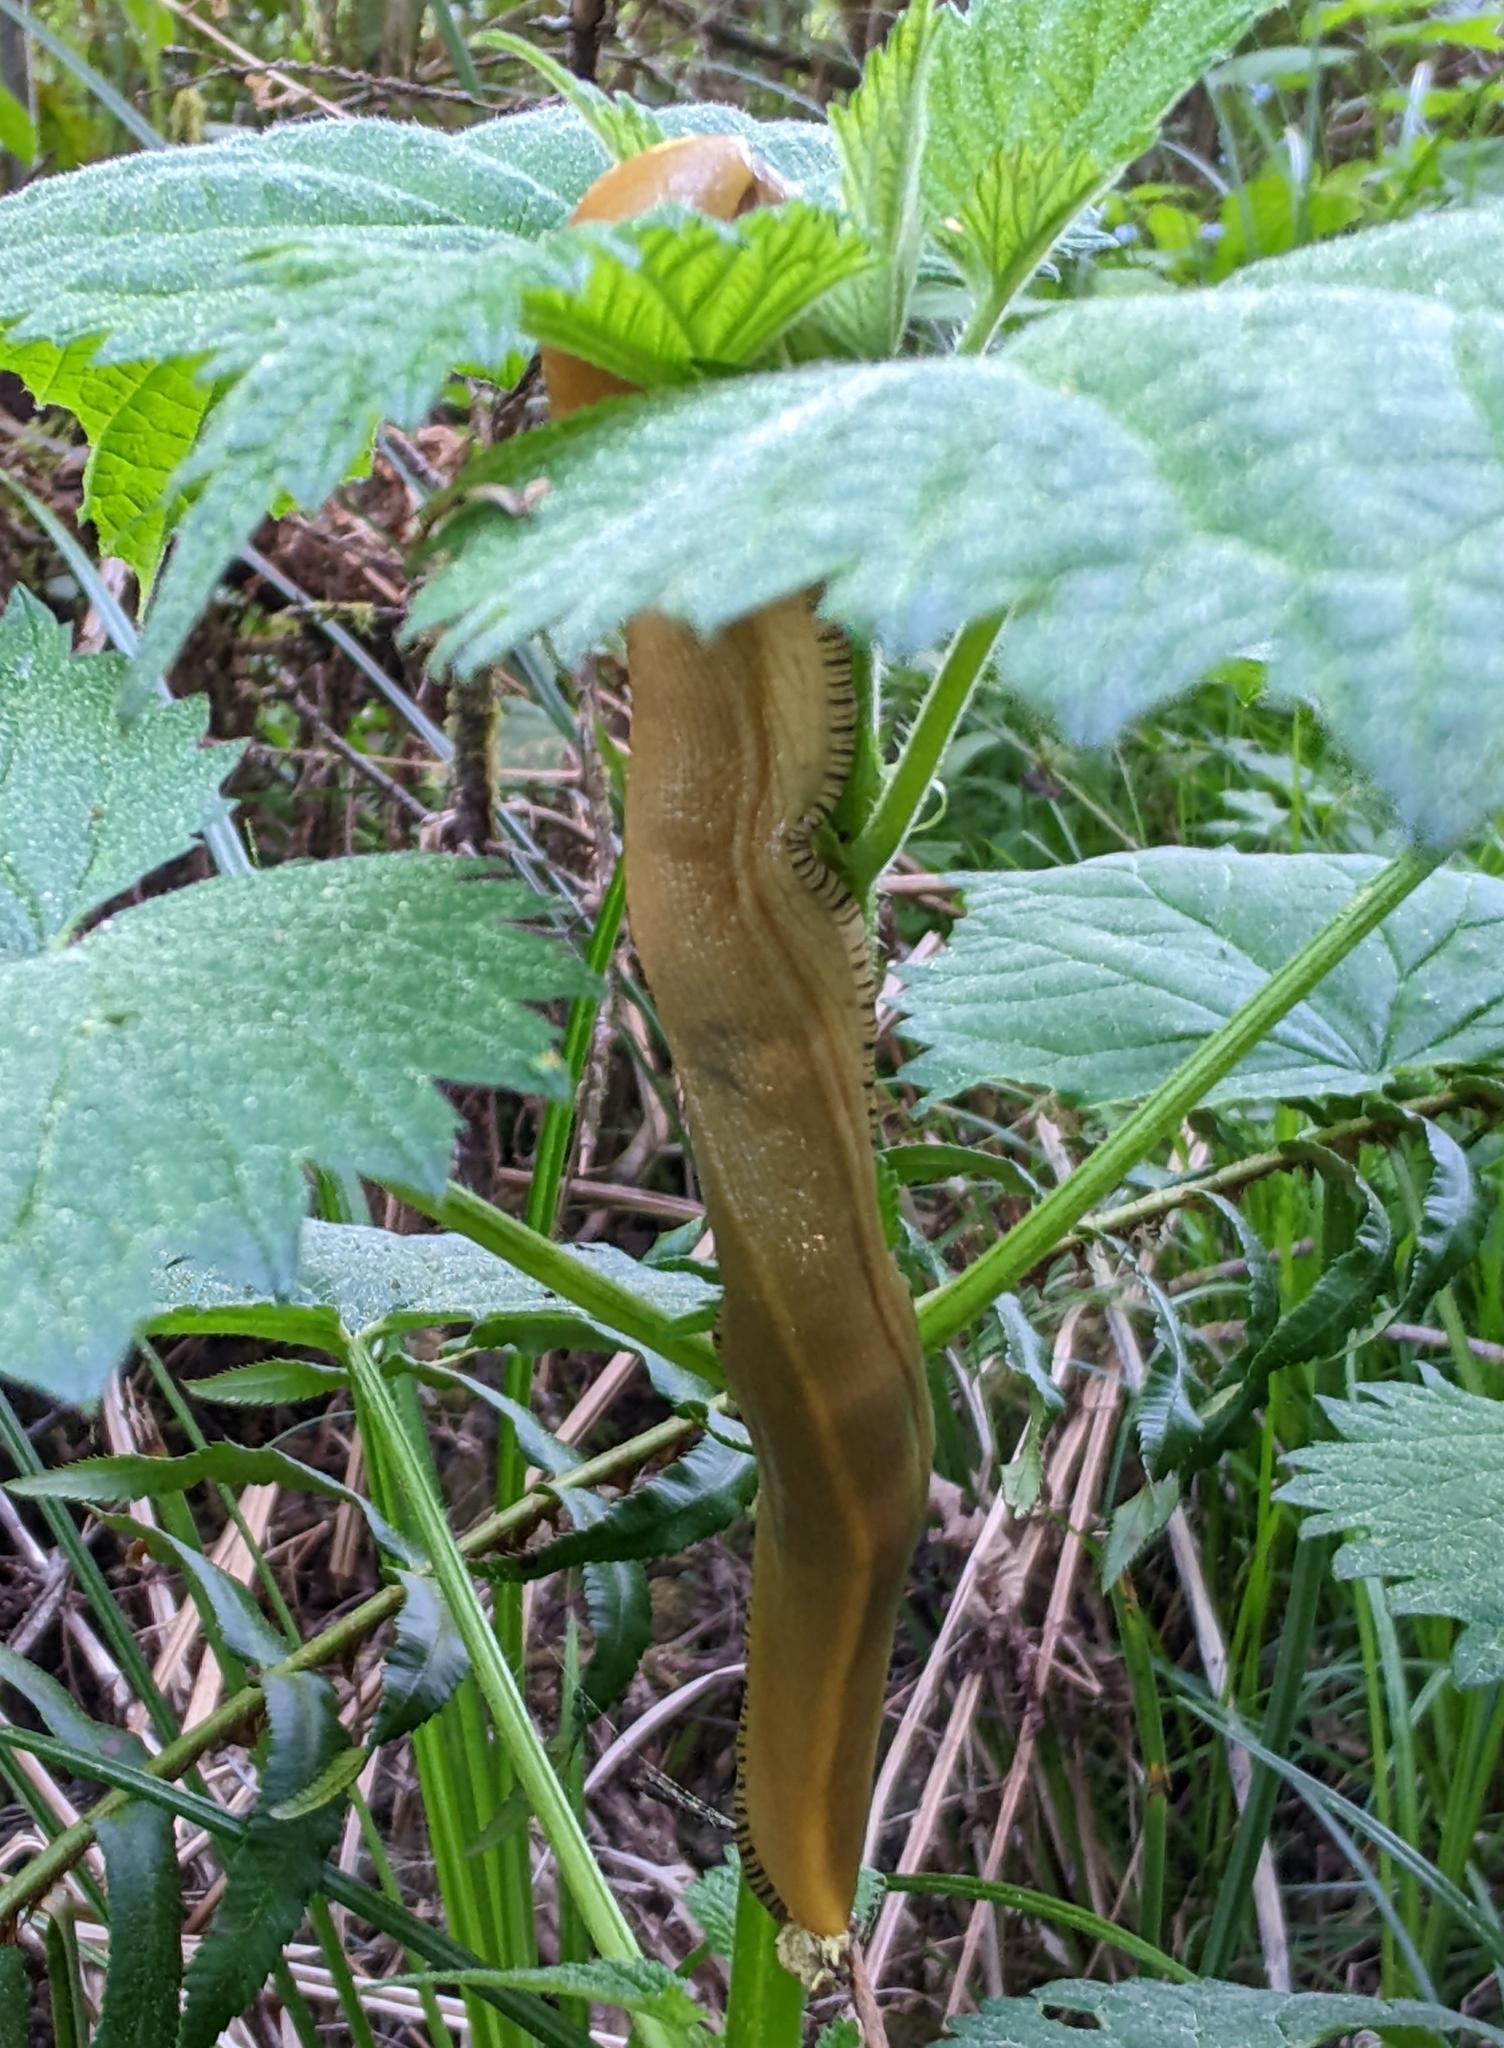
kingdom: Animalia
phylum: Mollusca
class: Gastropoda
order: Stylommatophora
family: Ariolimacidae
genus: Ariolimax
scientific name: Ariolimax buttoni
